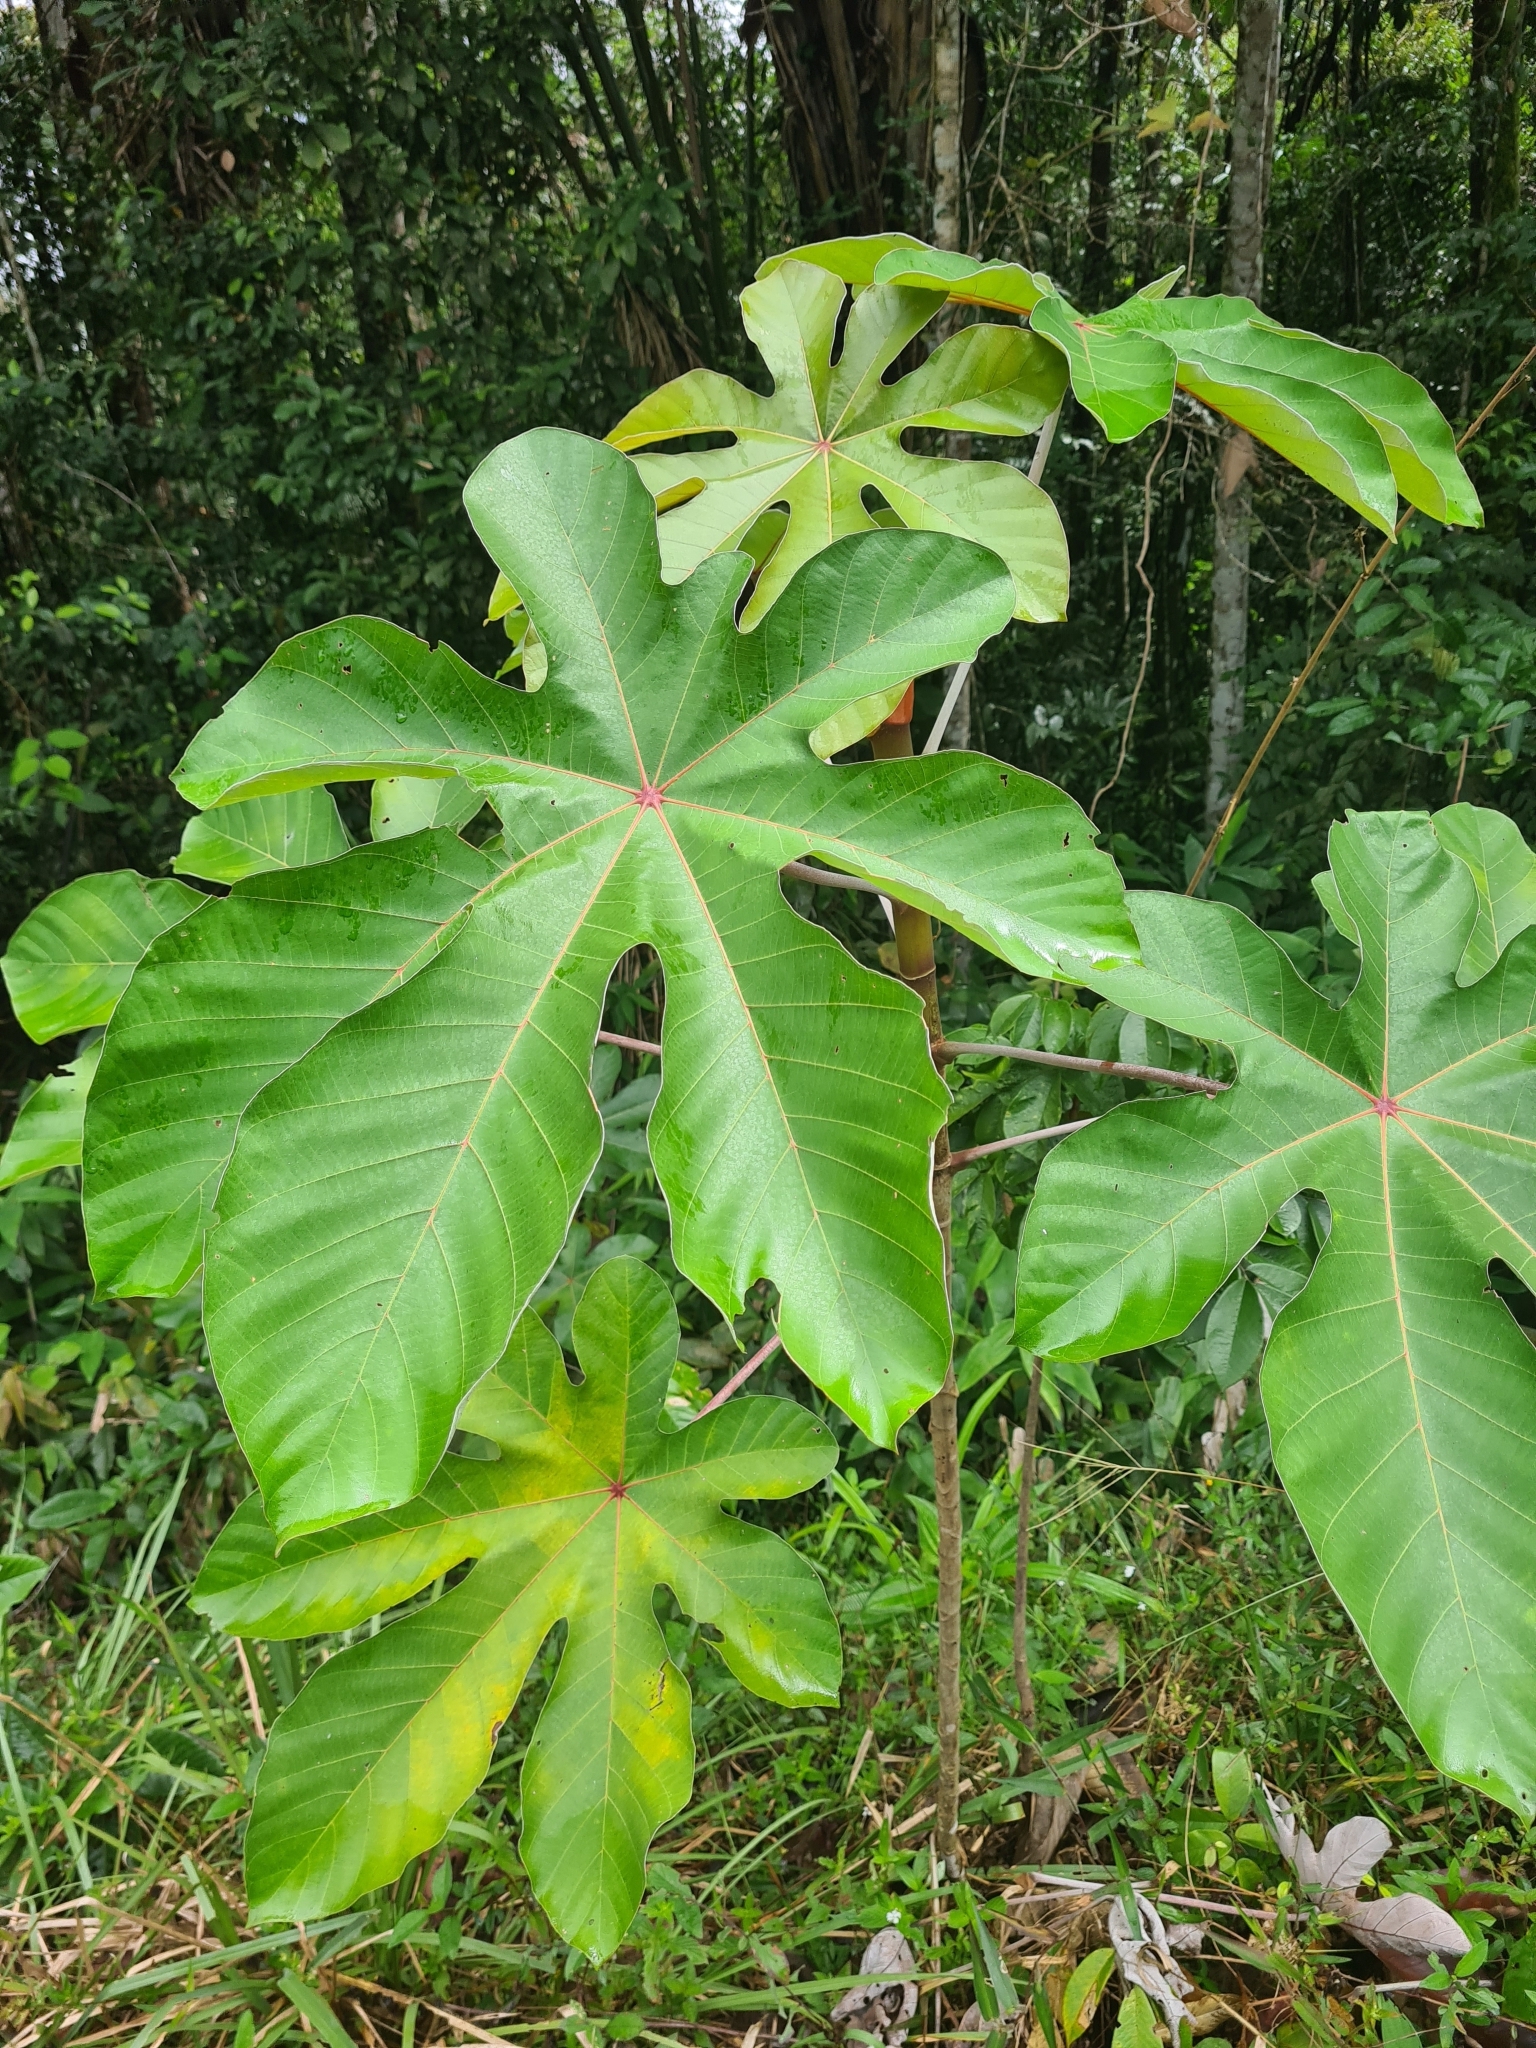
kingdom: Plantae
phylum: Tracheophyta
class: Magnoliopsida
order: Rosales
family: Urticaceae
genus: Cecropia
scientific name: Cecropia obtusa
